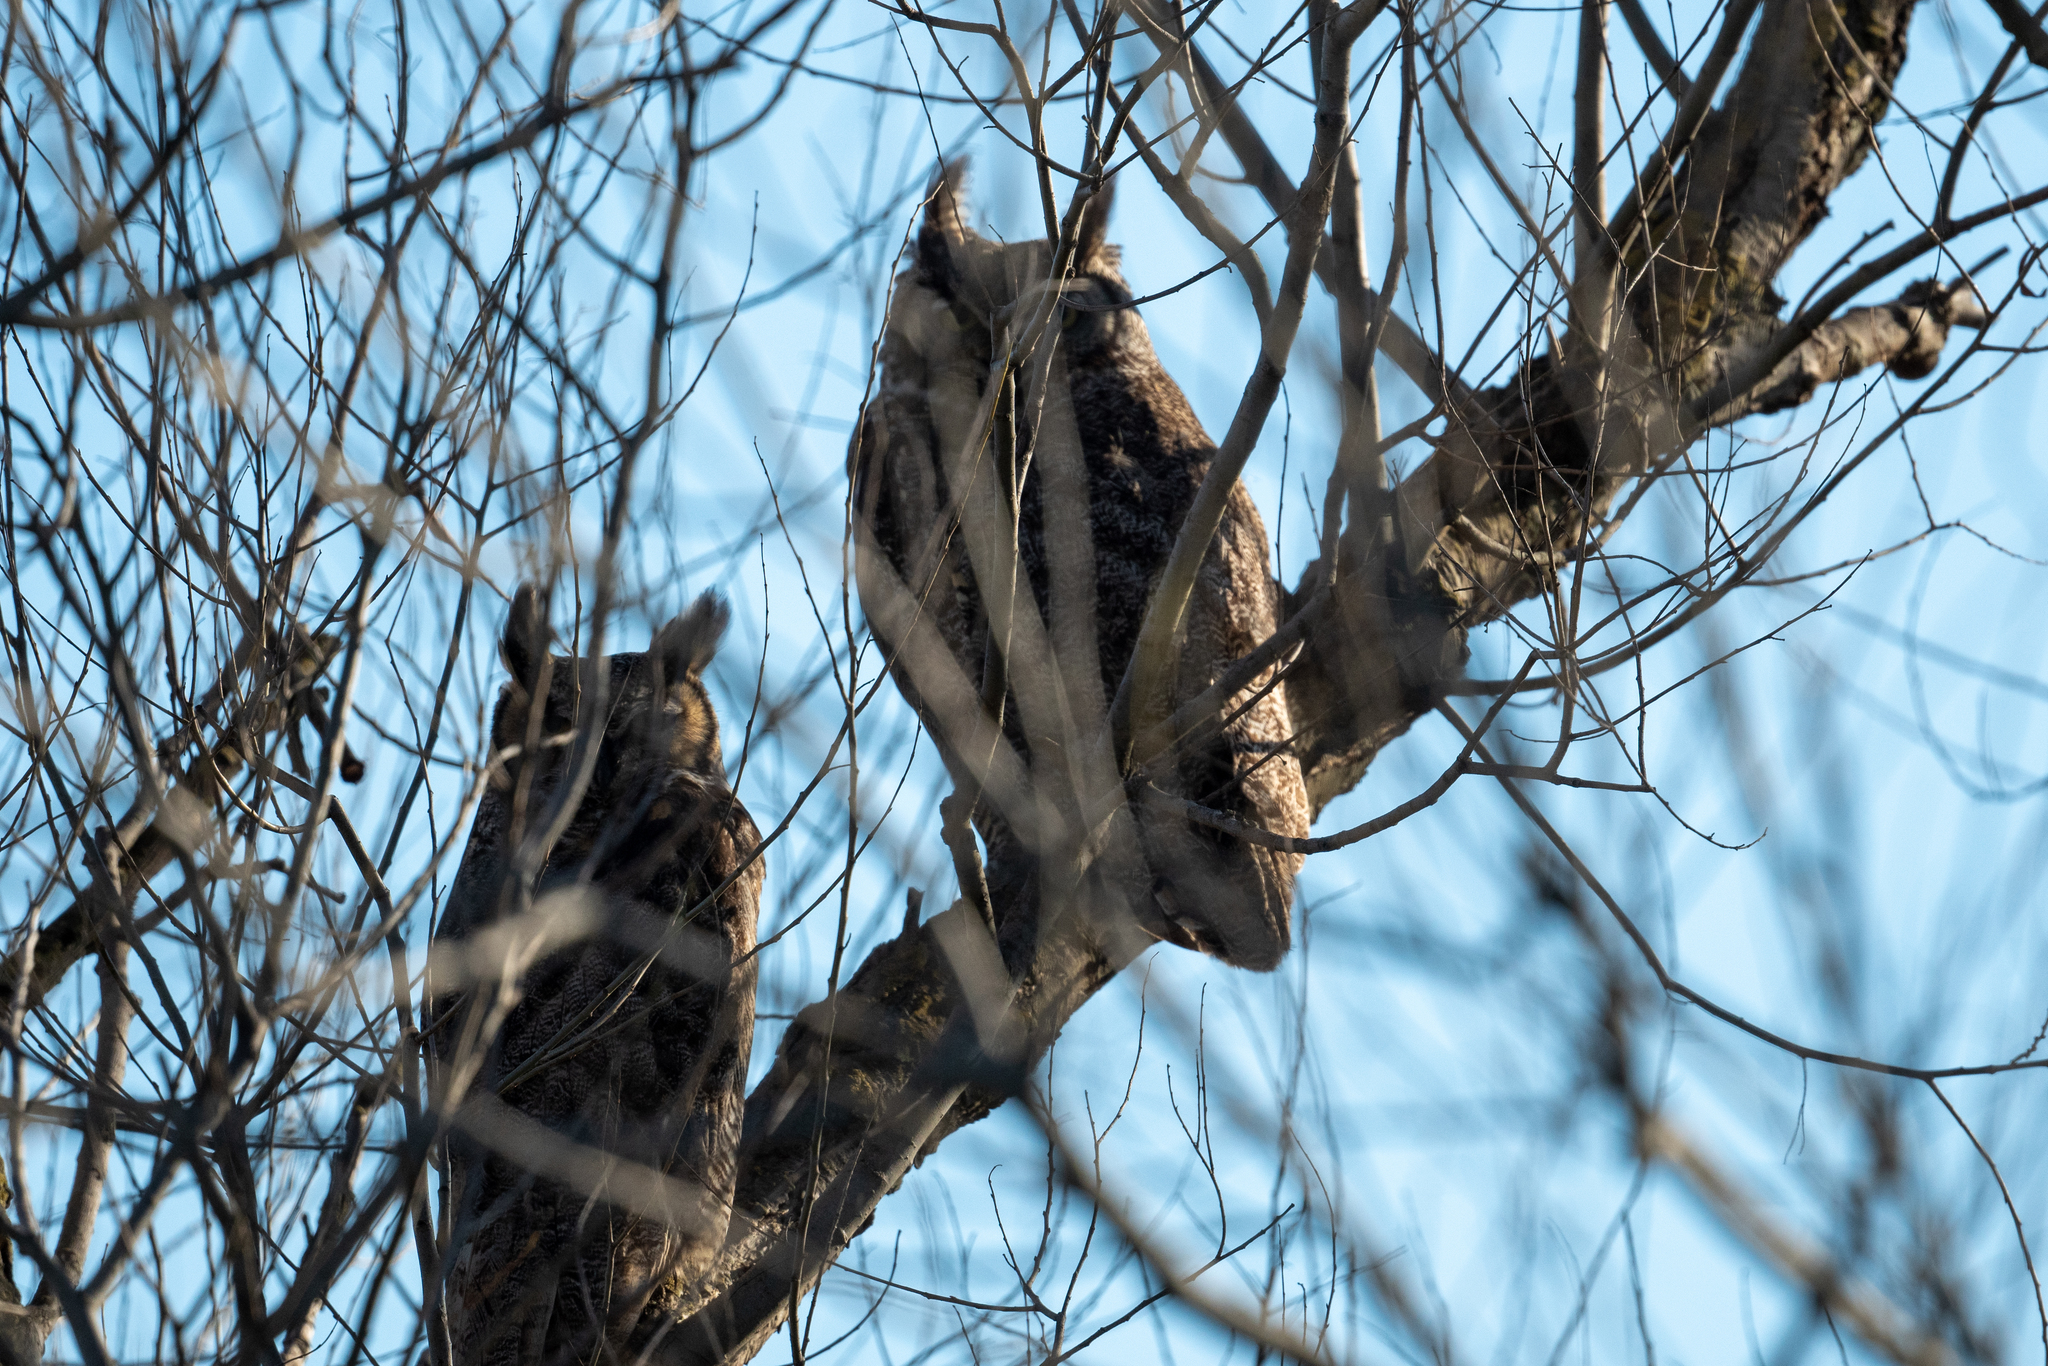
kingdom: Animalia
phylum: Chordata
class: Aves
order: Strigiformes
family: Strigidae
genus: Bubo
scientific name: Bubo virginianus
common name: Great horned owl
